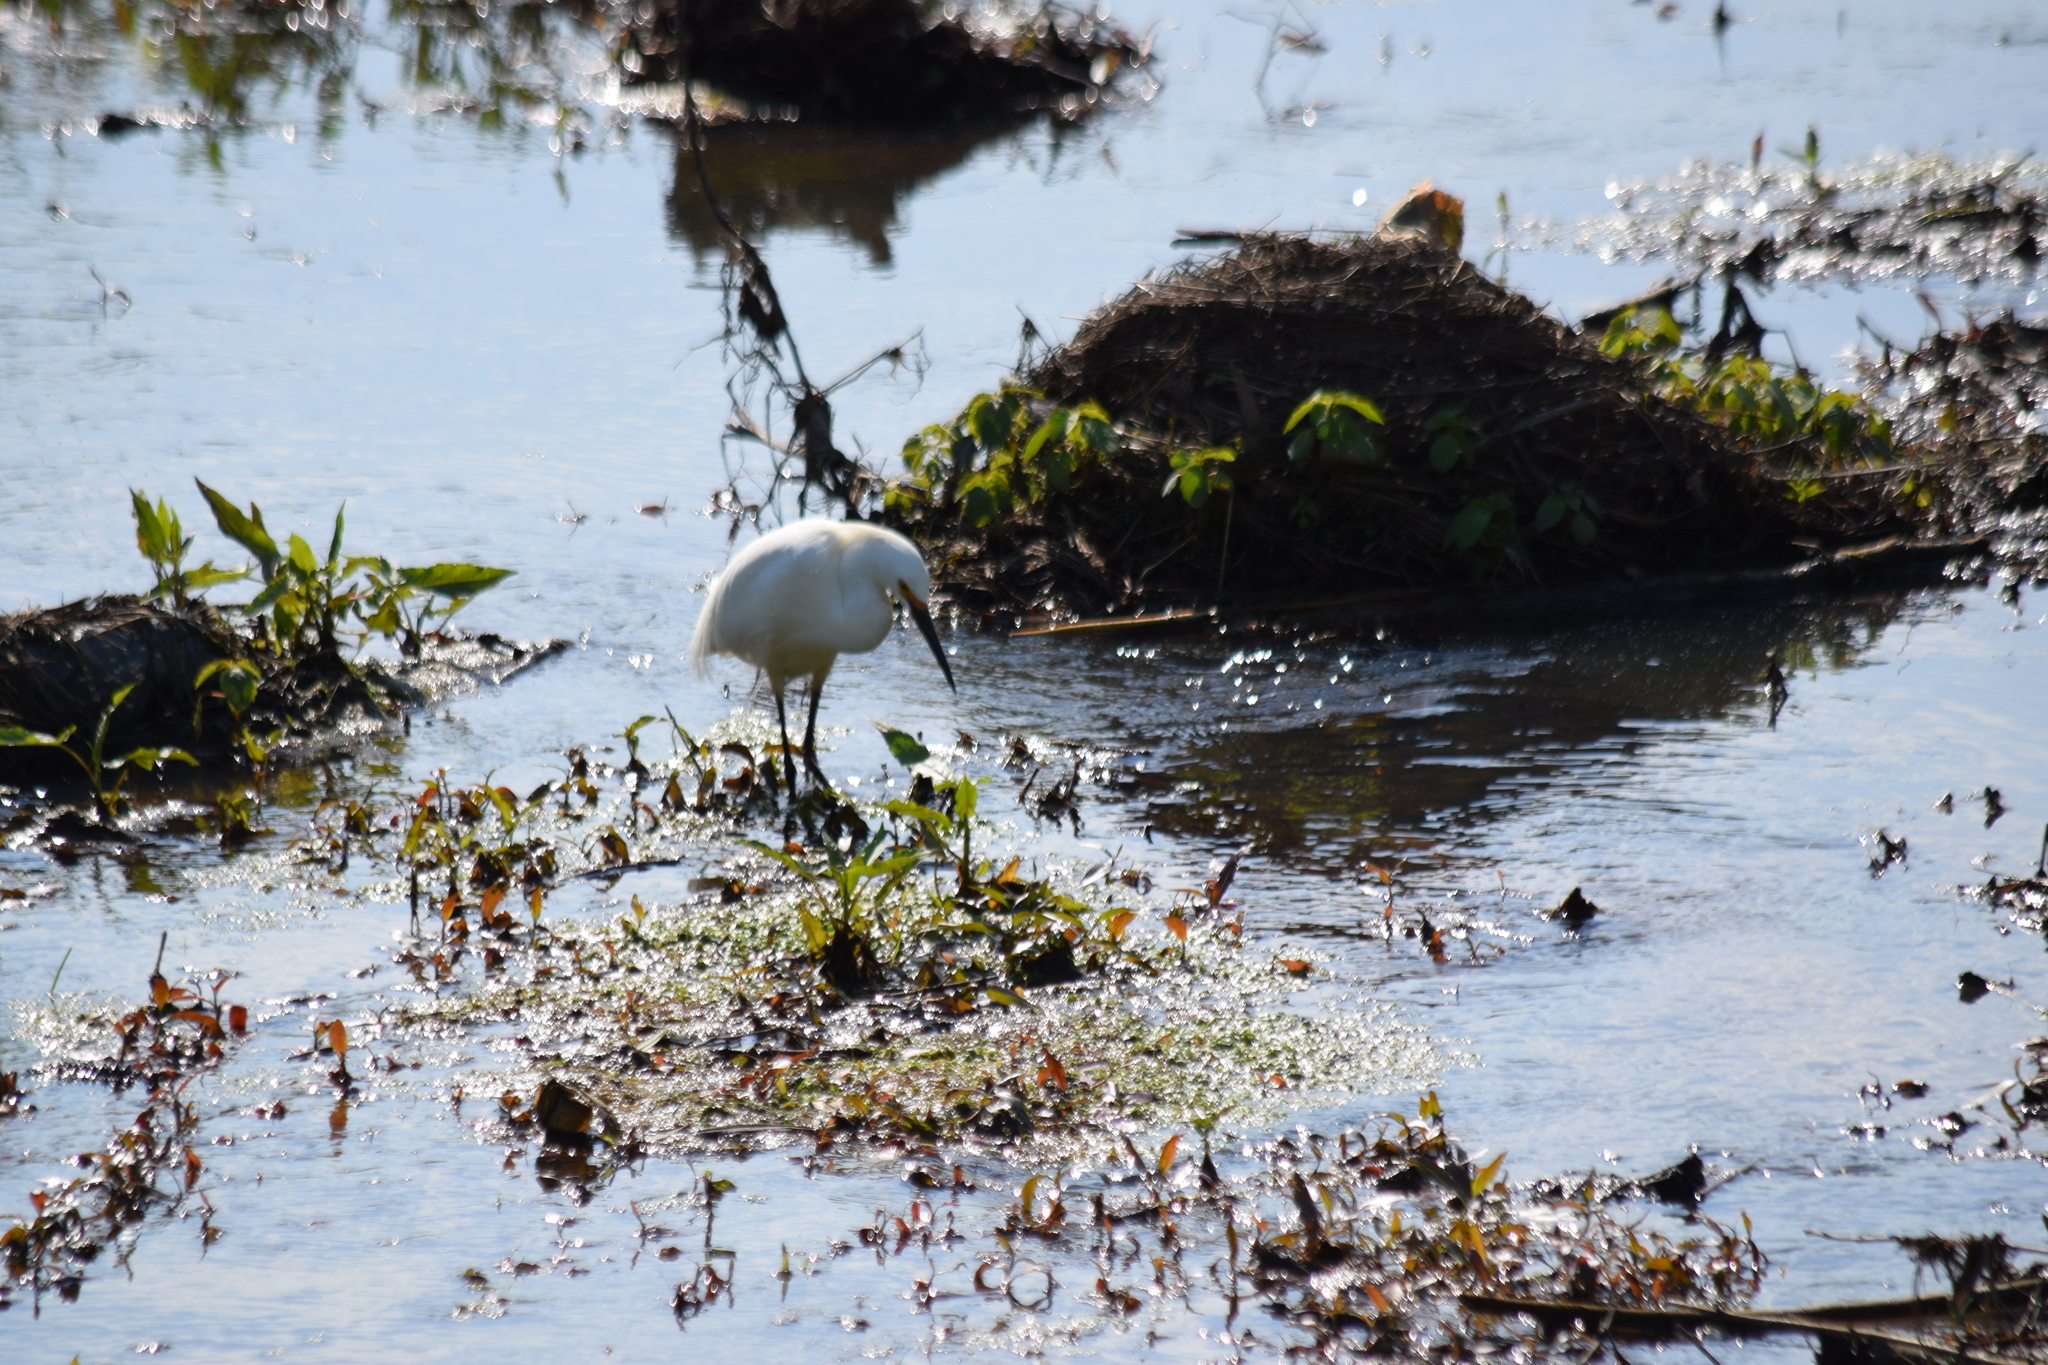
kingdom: Animalia
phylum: Chordata
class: Aves
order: Pelecaniformes
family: Ardeidae
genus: Egretta
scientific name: Egretta thula
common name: Snowy egret
